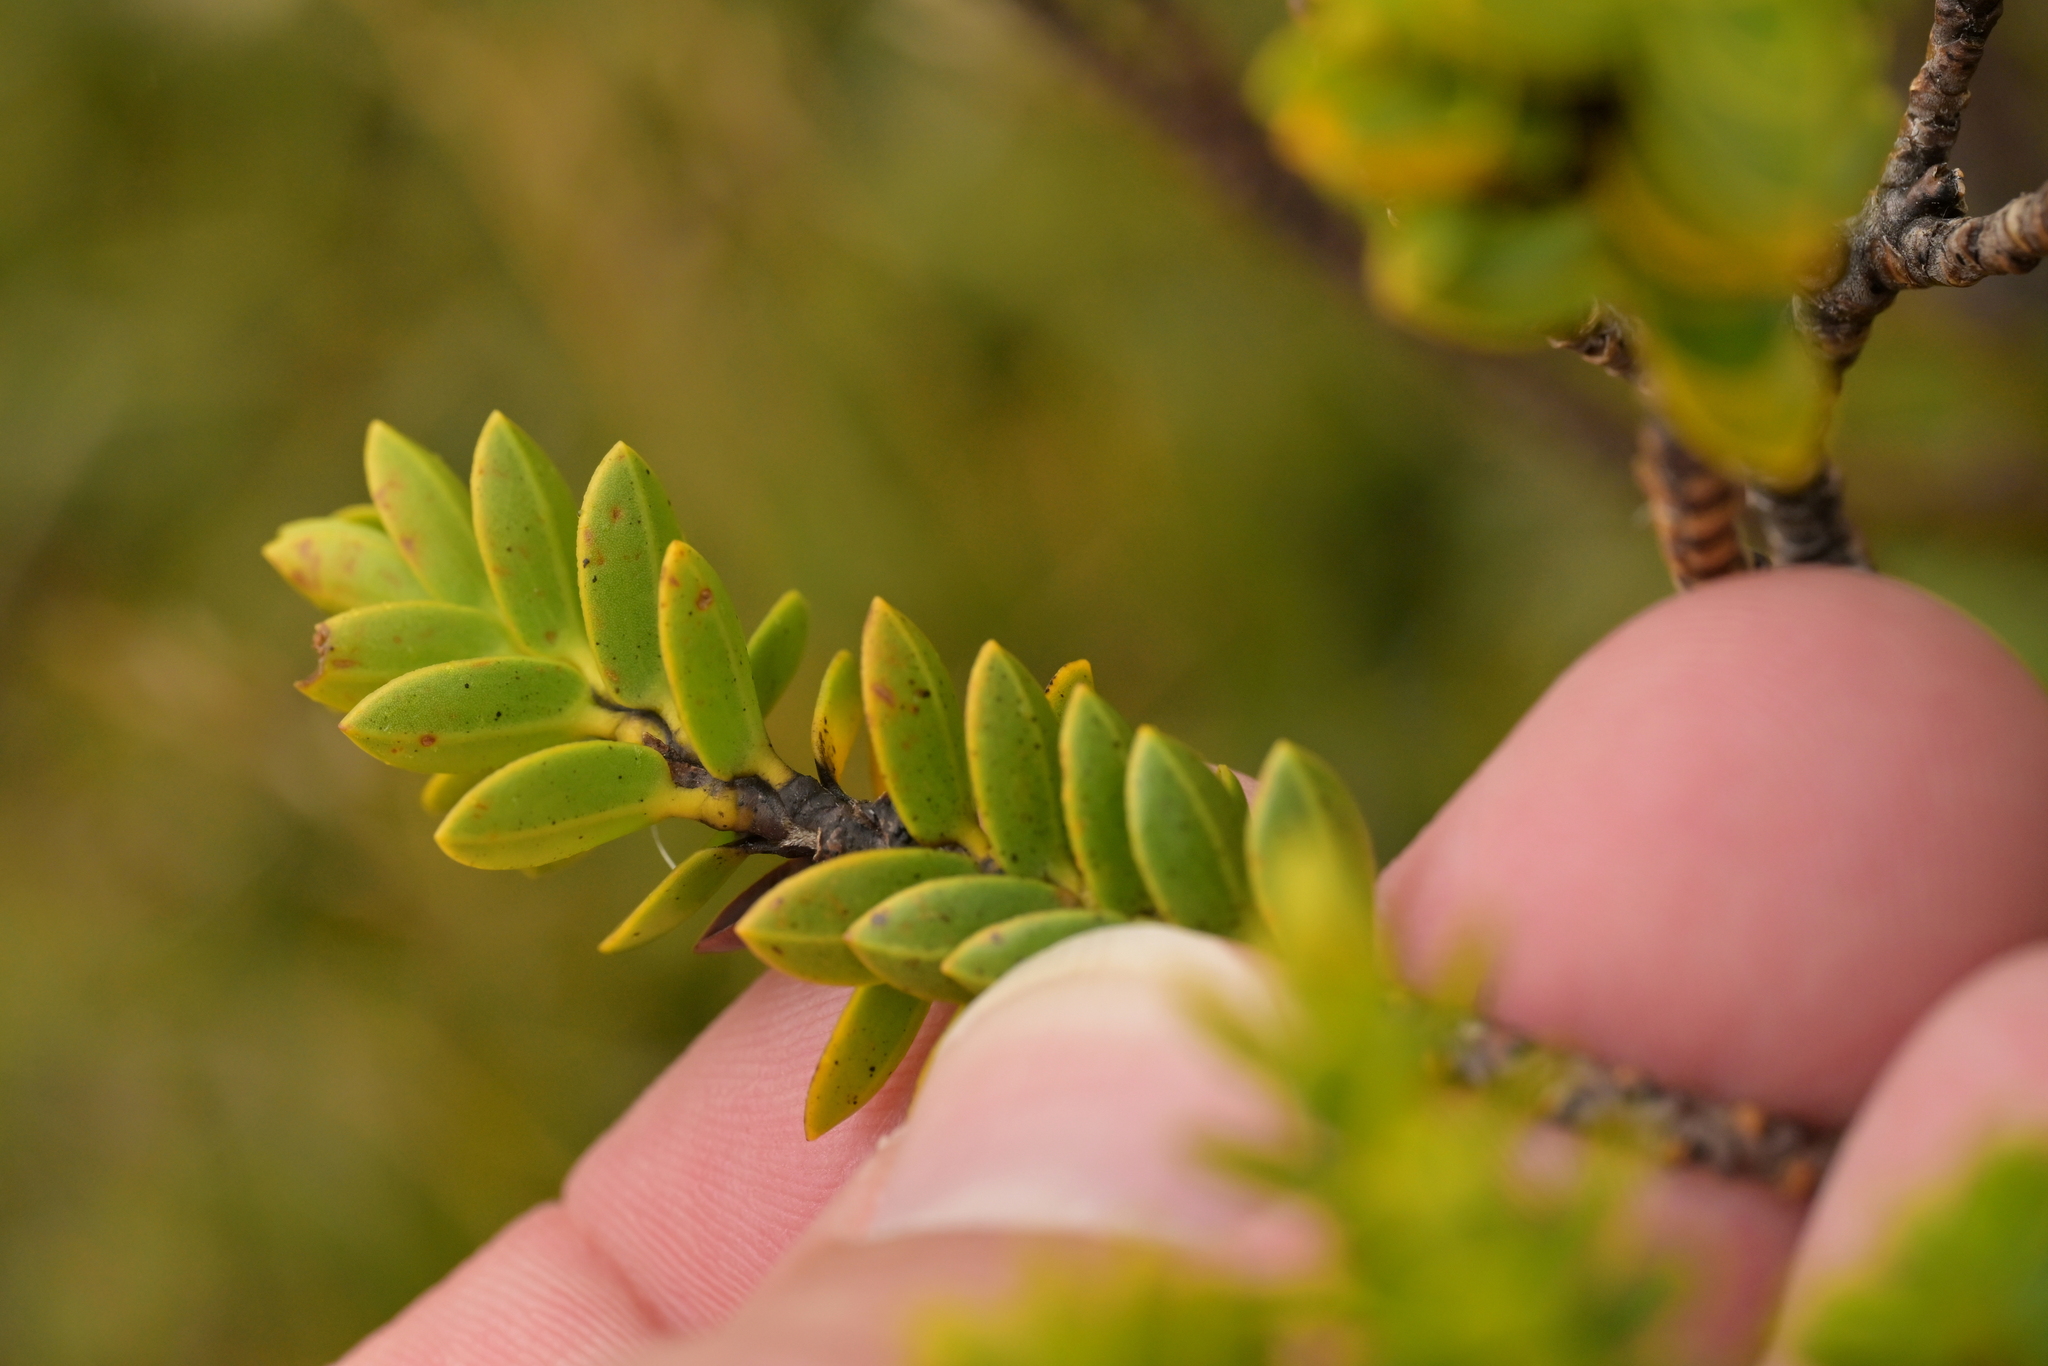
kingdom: Plantae
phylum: Tracheophyta
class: Magnoliopsida
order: Lamiales
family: Plantaginaceae
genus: Veronica
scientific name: Veronica odora
